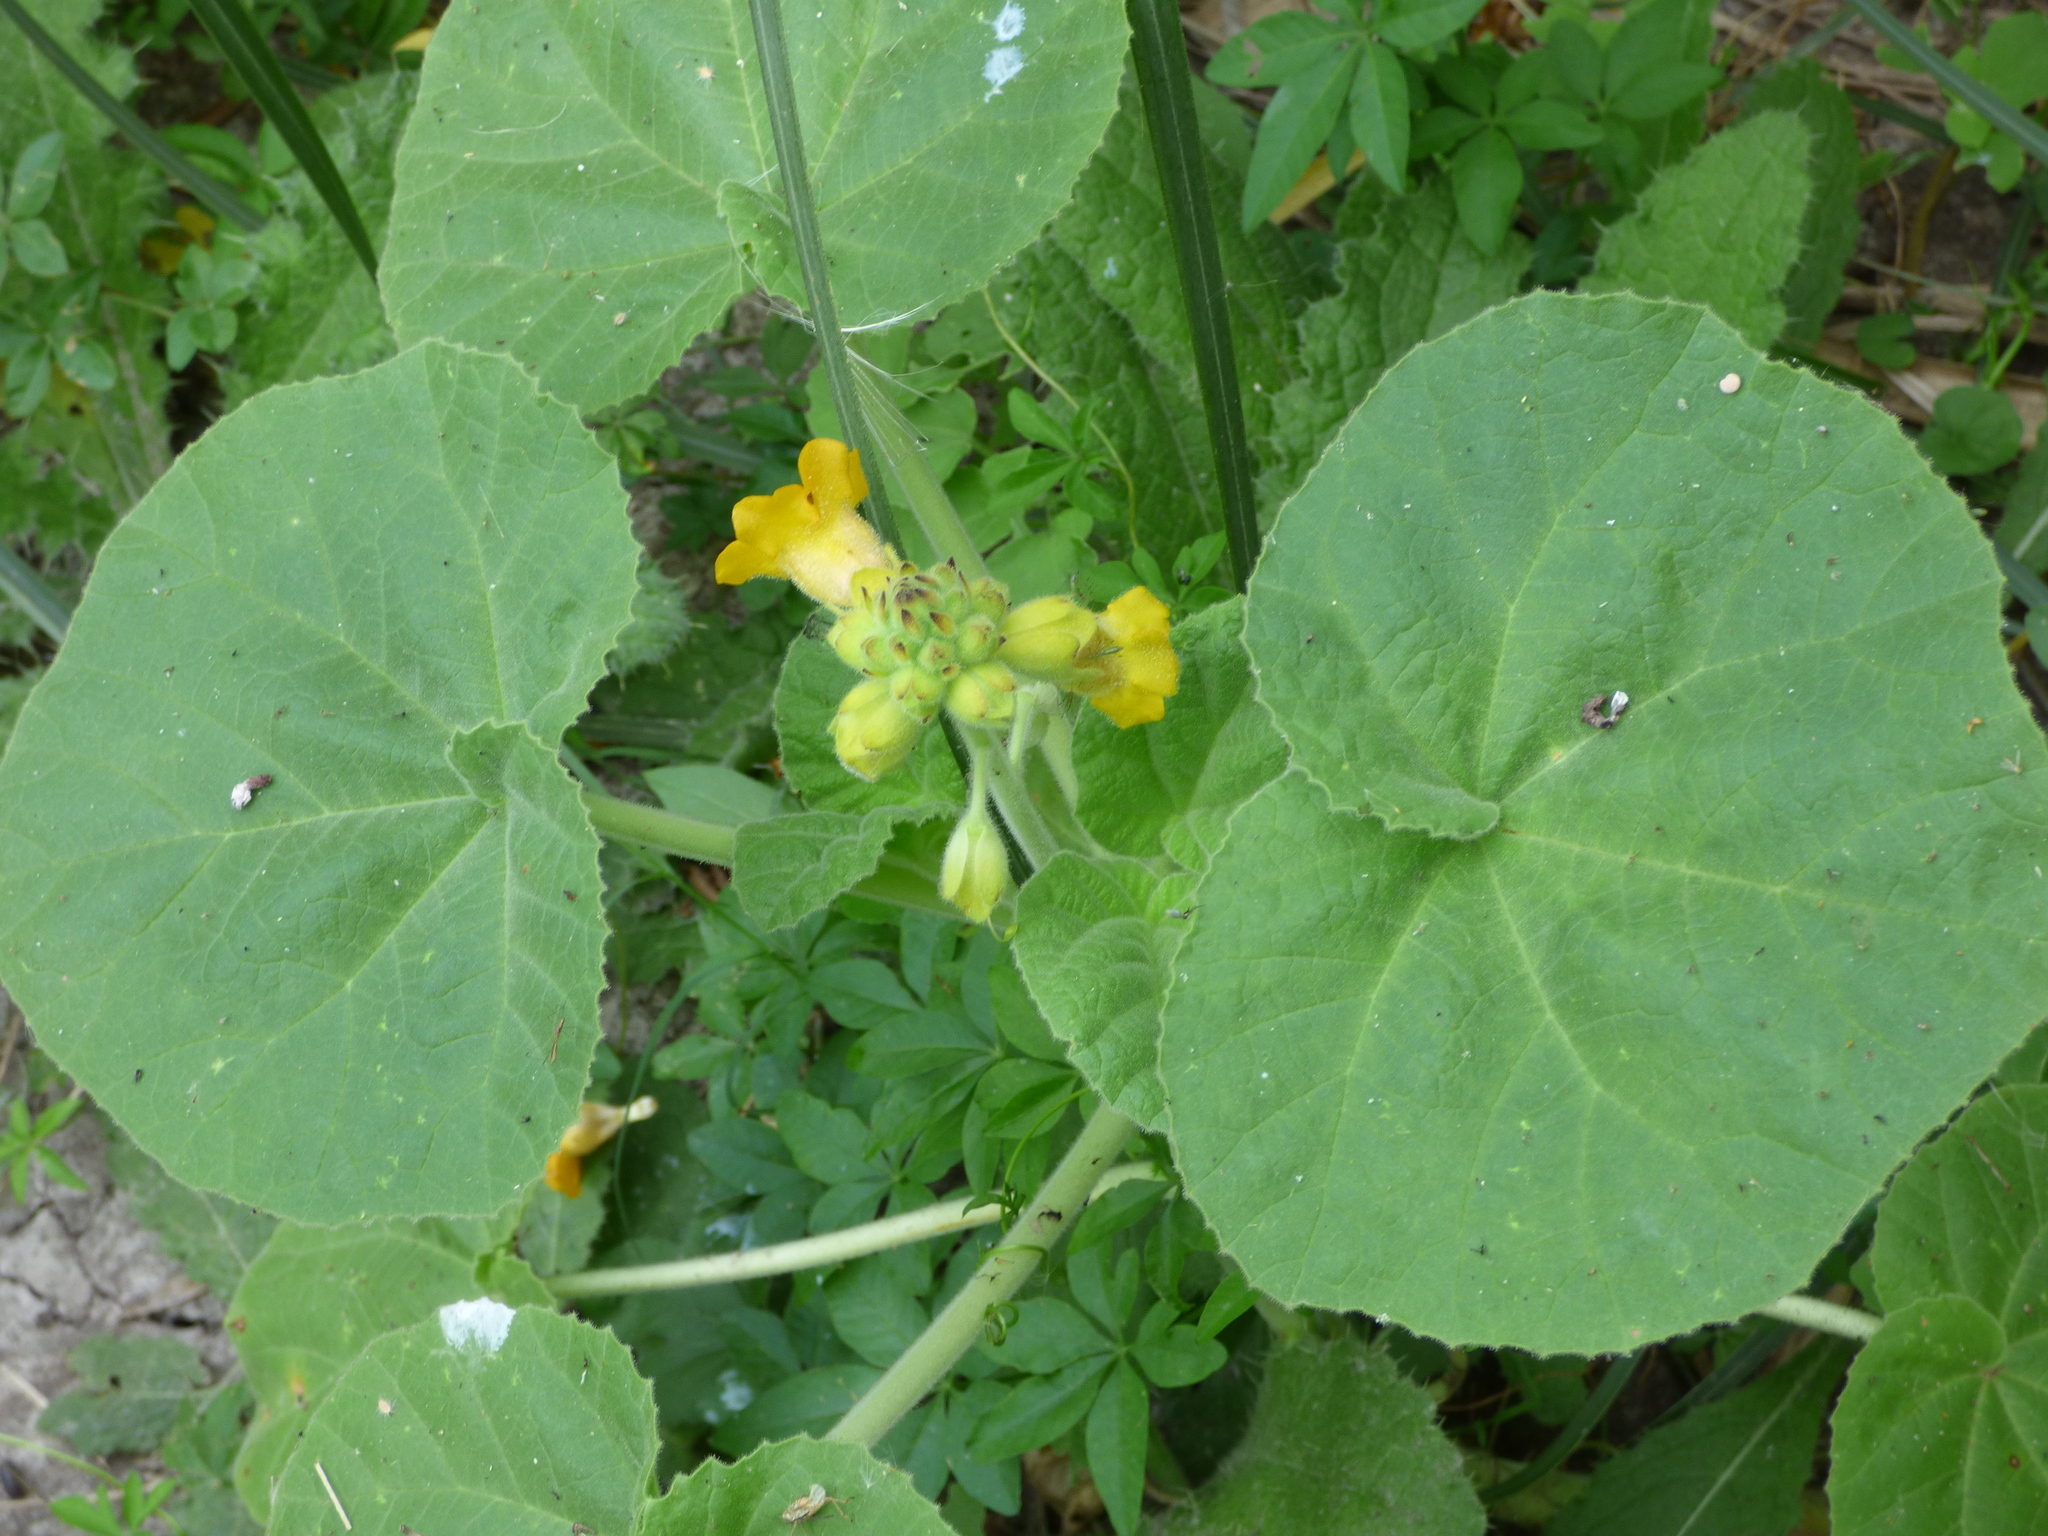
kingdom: Plantae
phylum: Tracheophyta
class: Magnoliopsida
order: Lamiales
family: Martyniaceae
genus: Ibicella
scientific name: Ibicella lutea
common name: Yellow unicorn-plant
